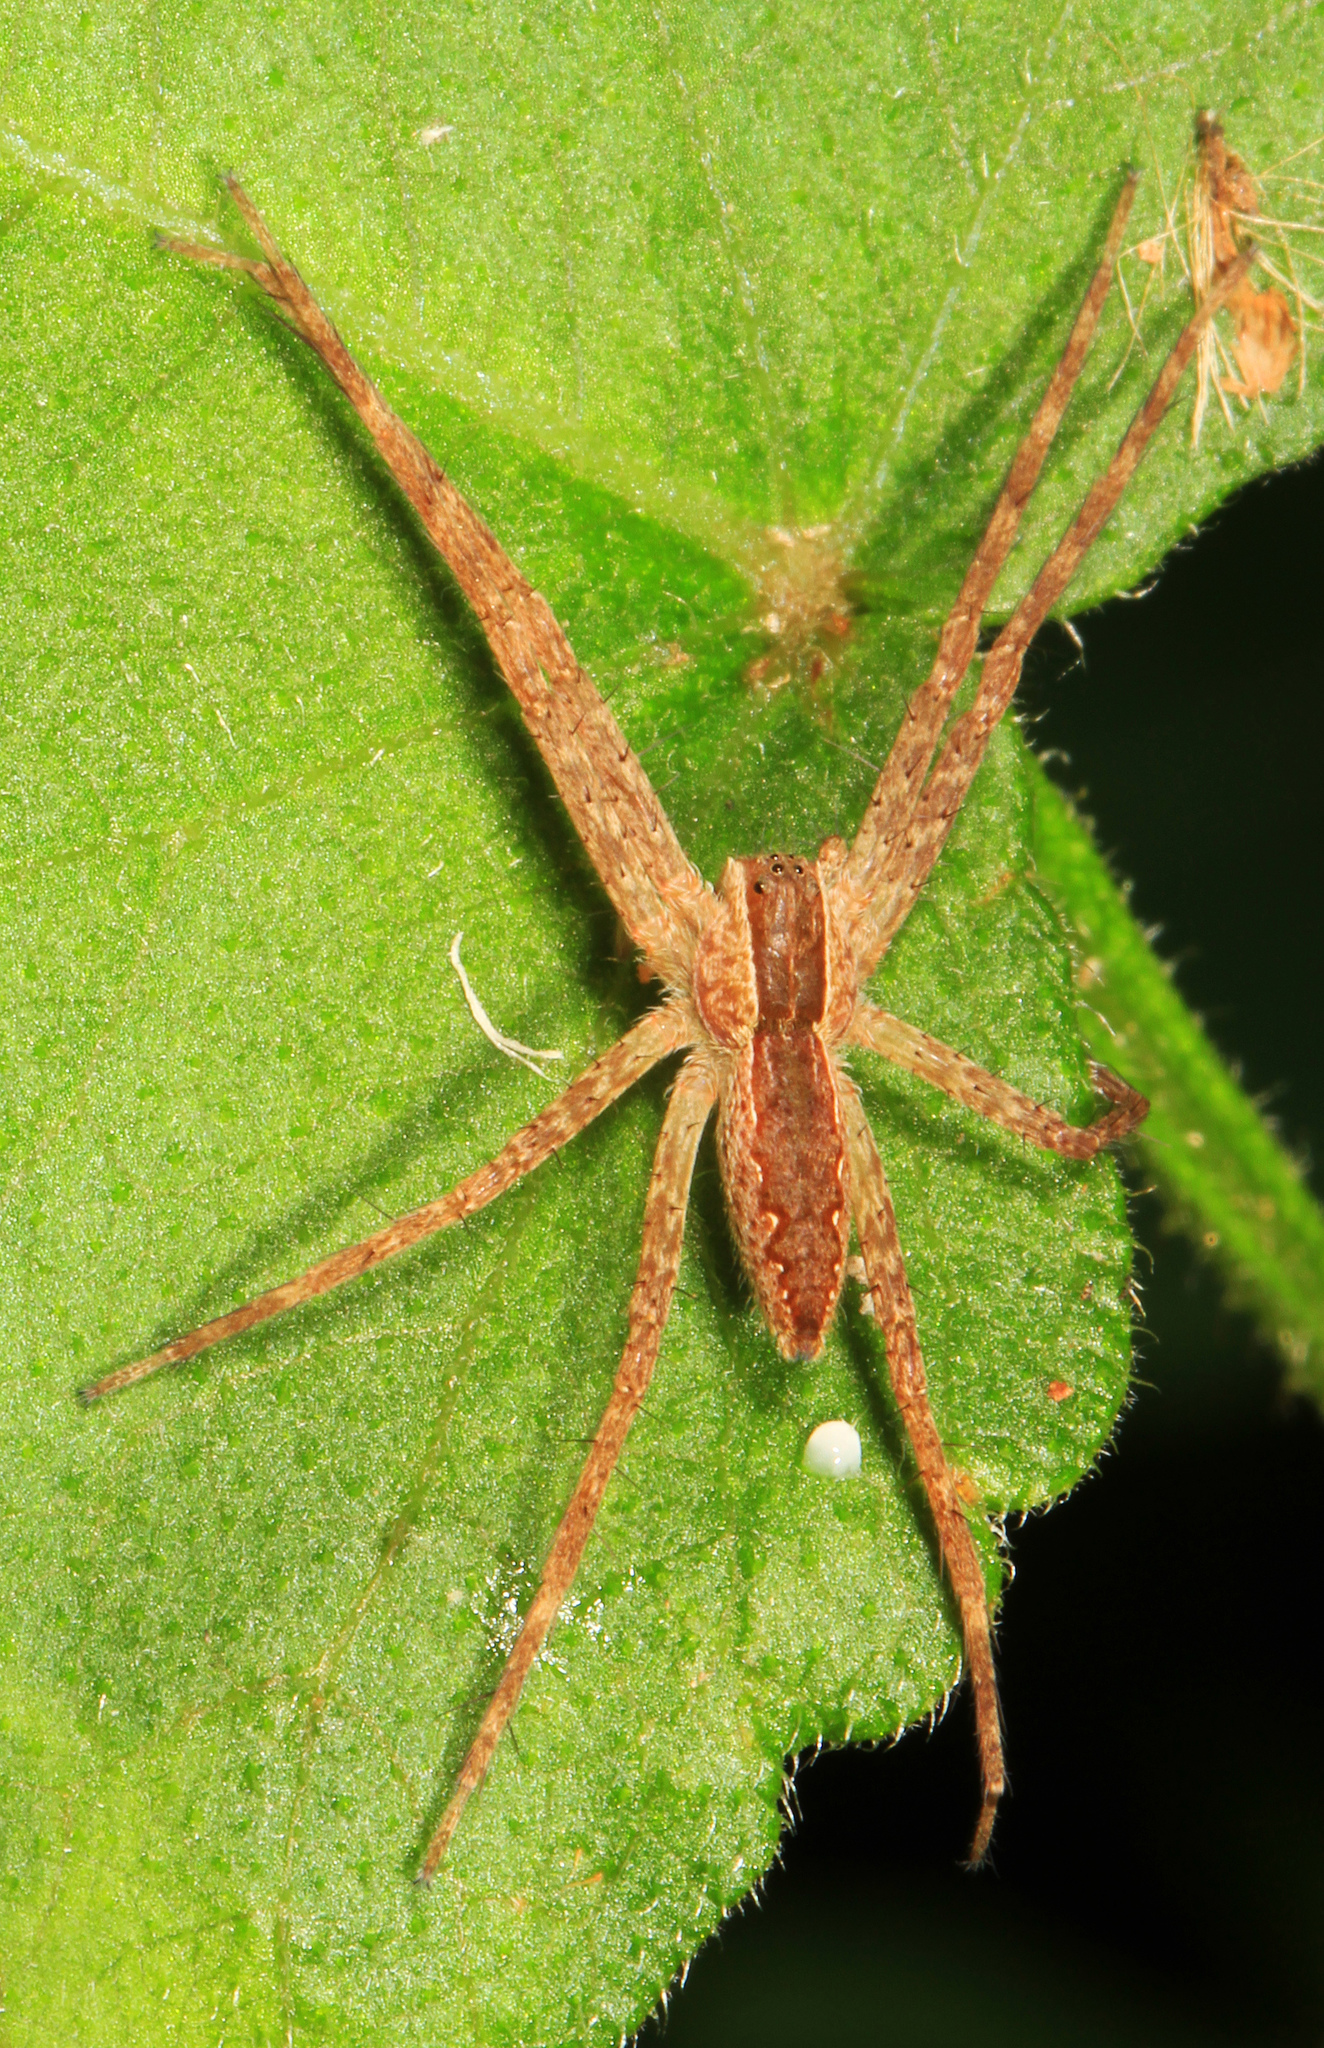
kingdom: Animalia
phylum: Arthropoda
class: Arachnida
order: Araneae
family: Pisauridae
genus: Pisaurina
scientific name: Pisaurina mira
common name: American nursery web spider
